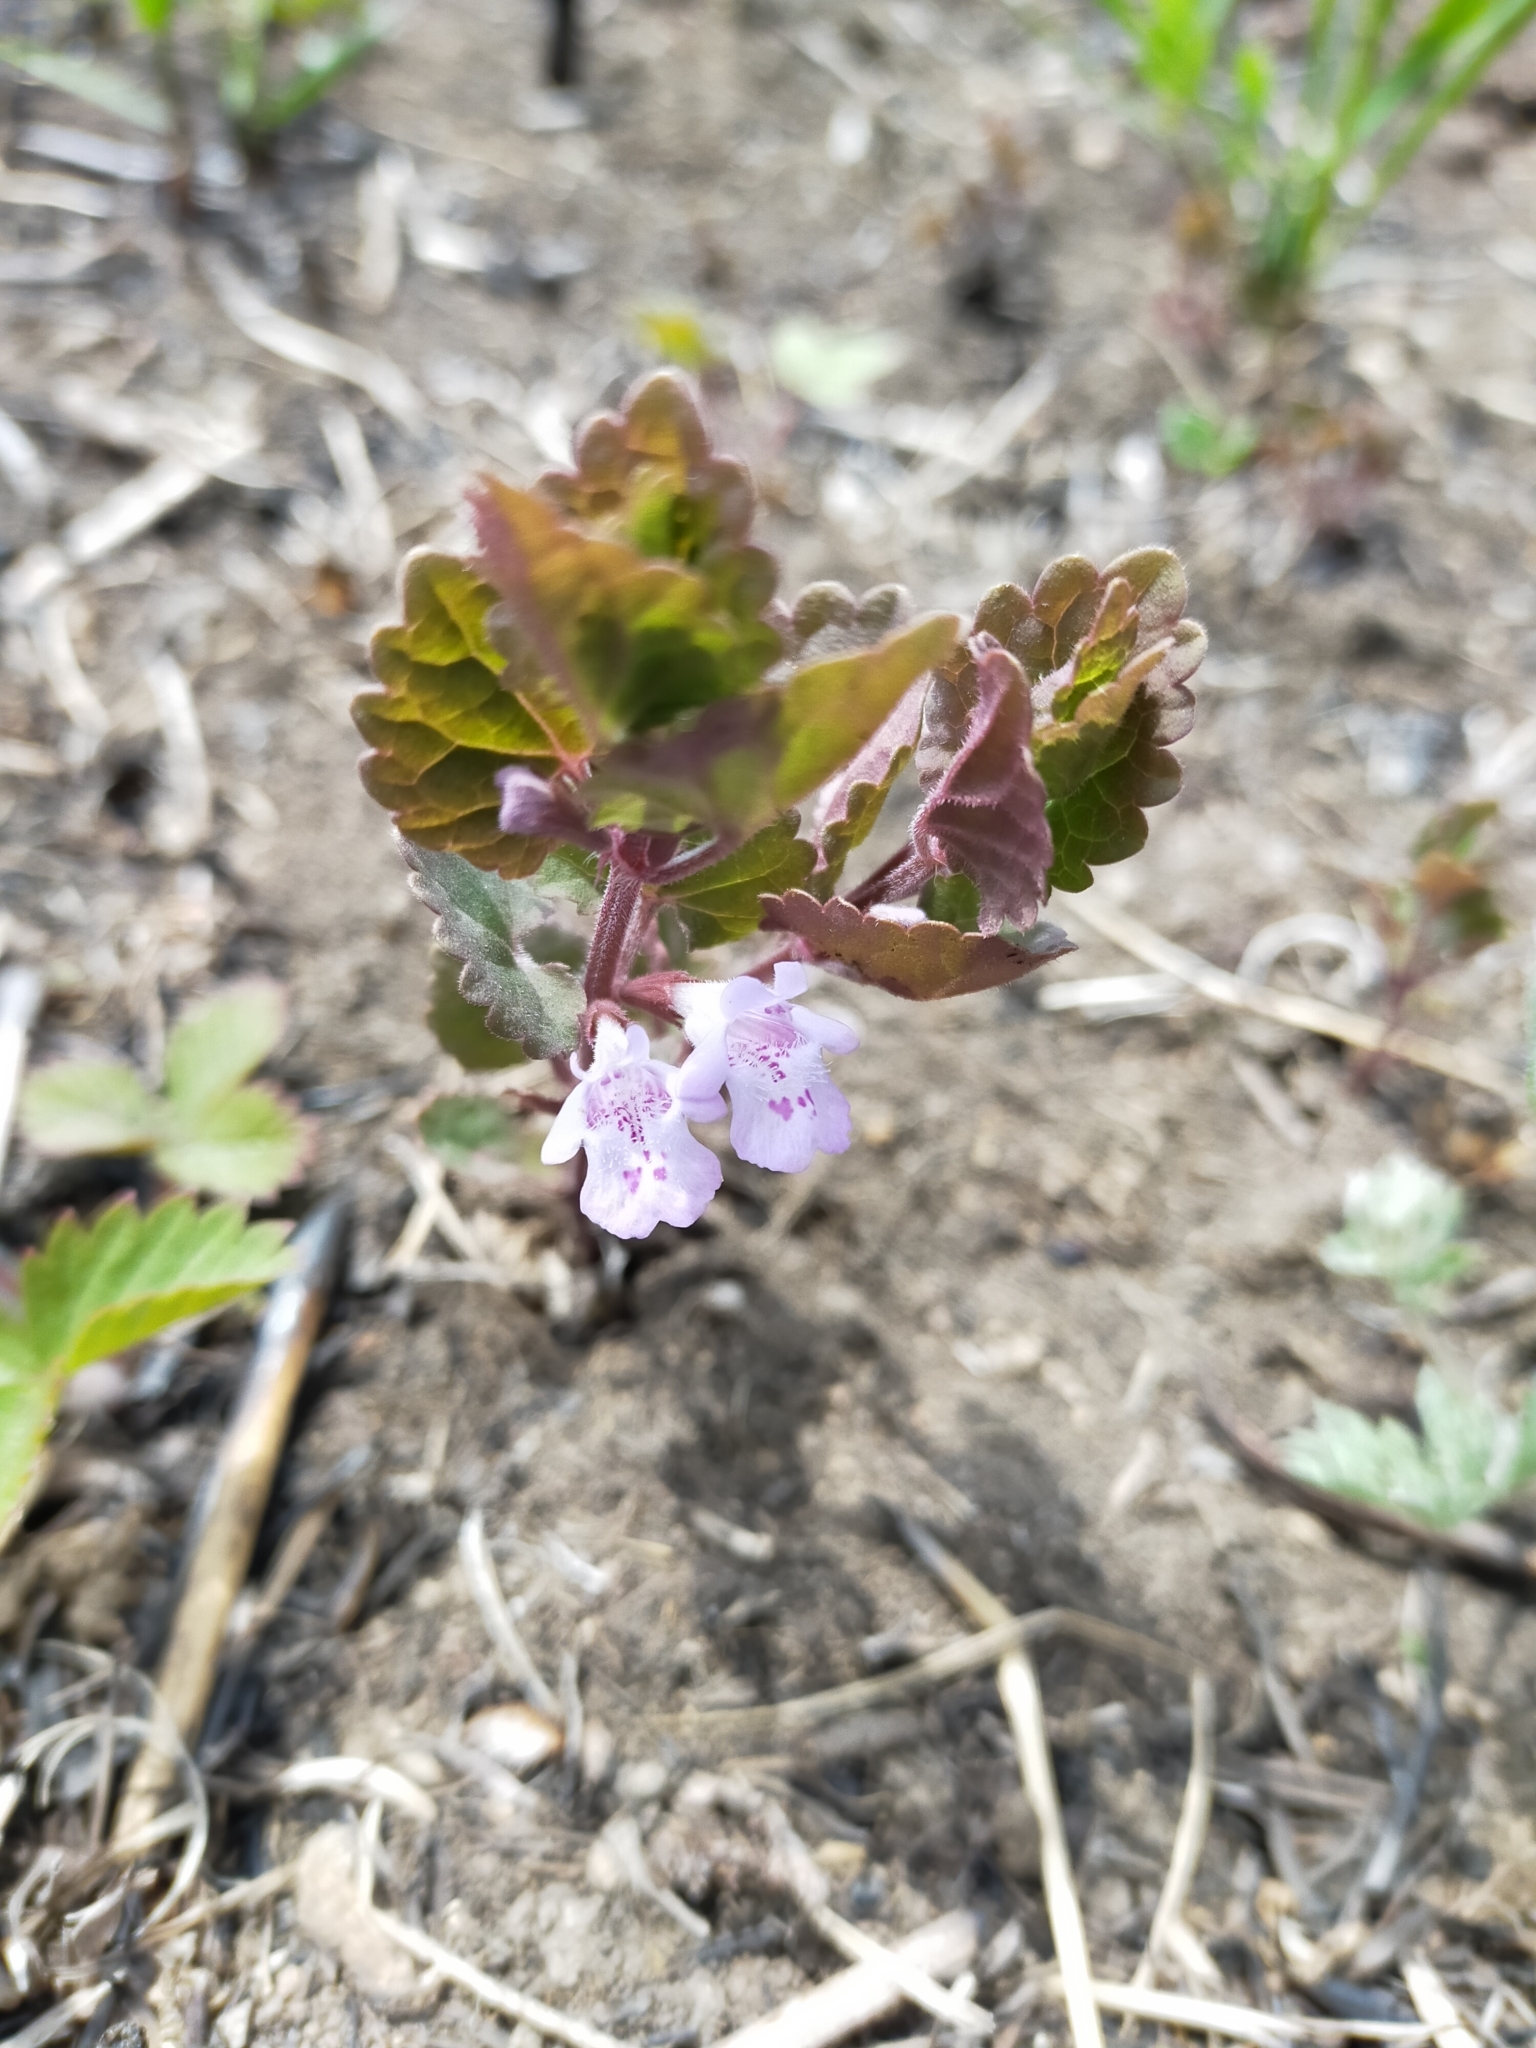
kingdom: Plantae
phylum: Tracheophyta
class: Magnoliopsida
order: Lamiales
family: Lamiaceae
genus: Glechoma
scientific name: Glechoma hederacea
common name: Ground ivy
